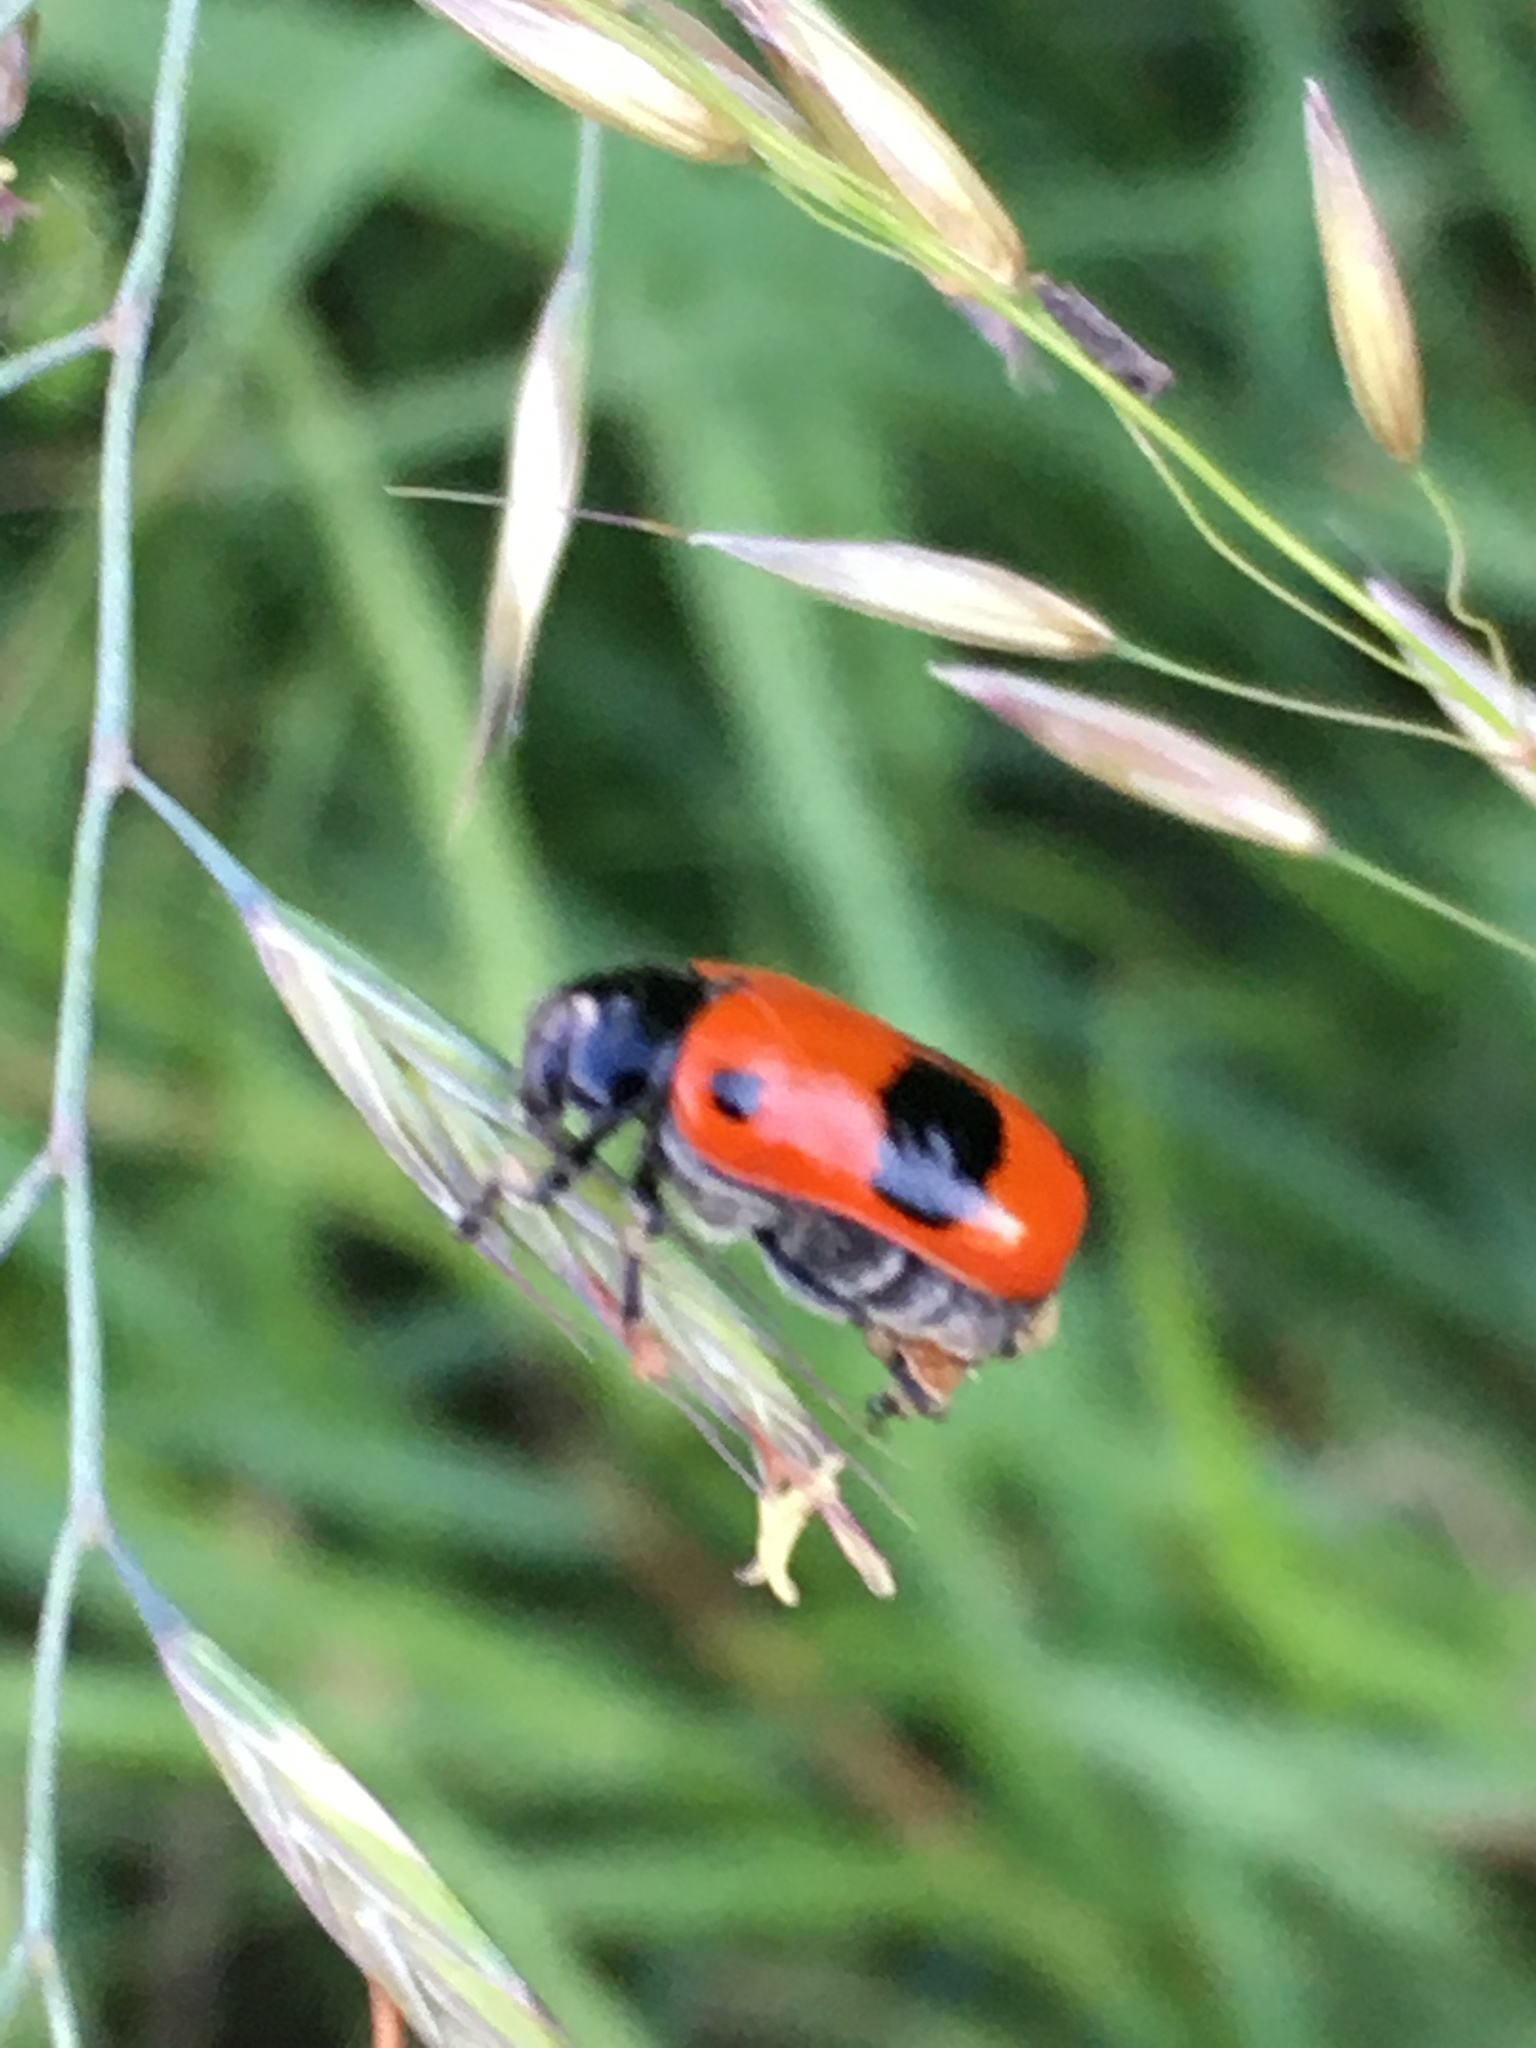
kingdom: Animalia
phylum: Arthropoda
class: Insecta
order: Coleoptera
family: Chrysomelidae
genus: Clytra
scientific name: Clytra laeviuscula
